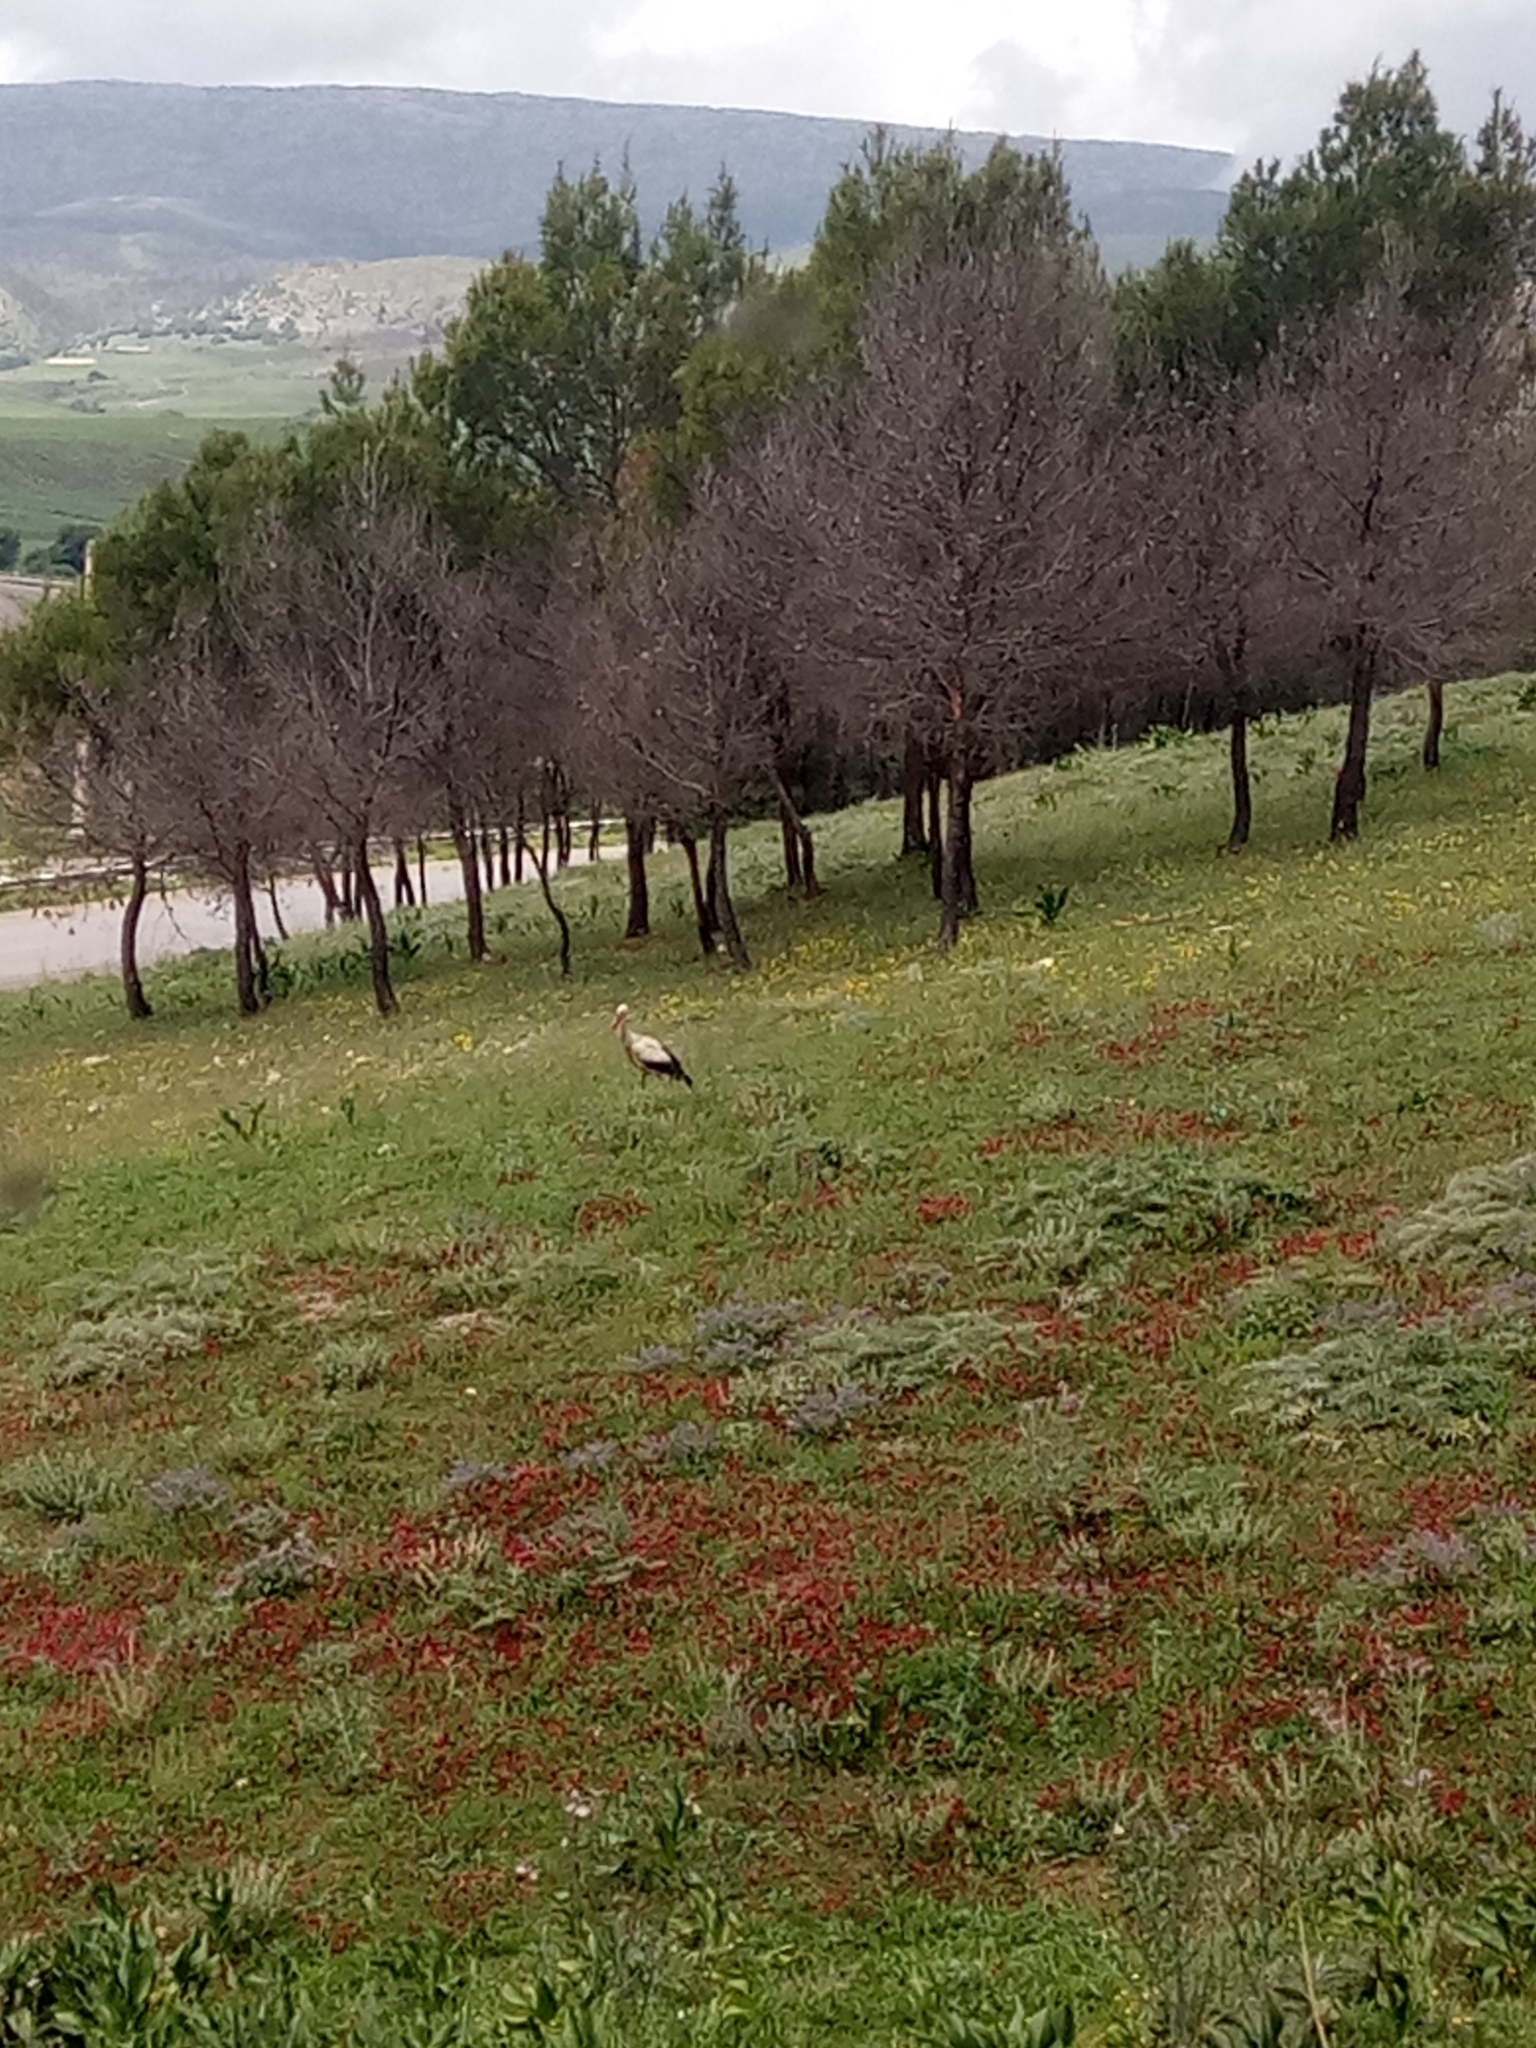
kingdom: Animalia
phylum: Chordata
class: Aves
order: Ciconiiformes
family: Ciconiidae
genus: Ciconia
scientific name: Ciconia ciconia
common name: White stork
